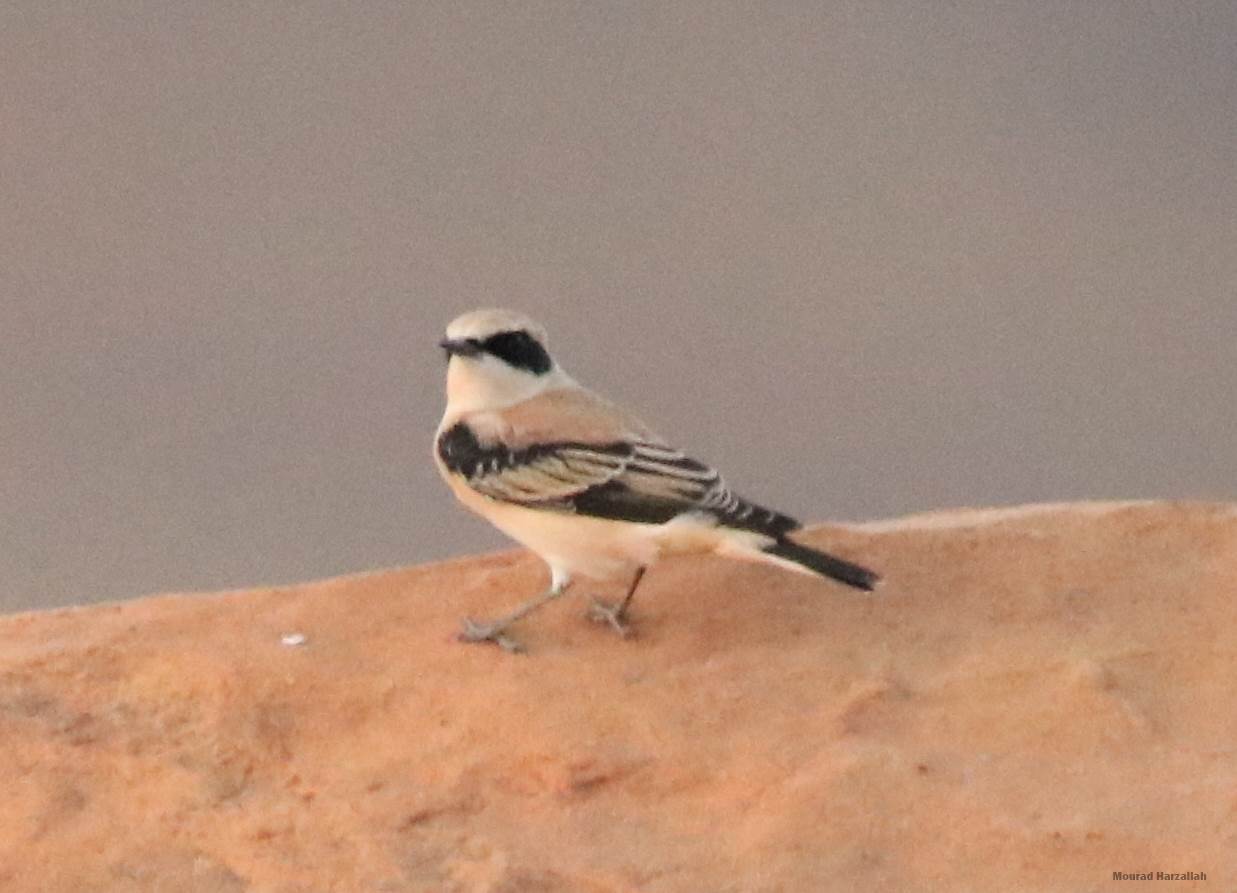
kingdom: Animalia
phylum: Chordata
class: Aves
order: Passeriformes
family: Muscicapidae
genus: Oenanthe
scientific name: Oenanthe hispanica
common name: Black-eared wheatear
